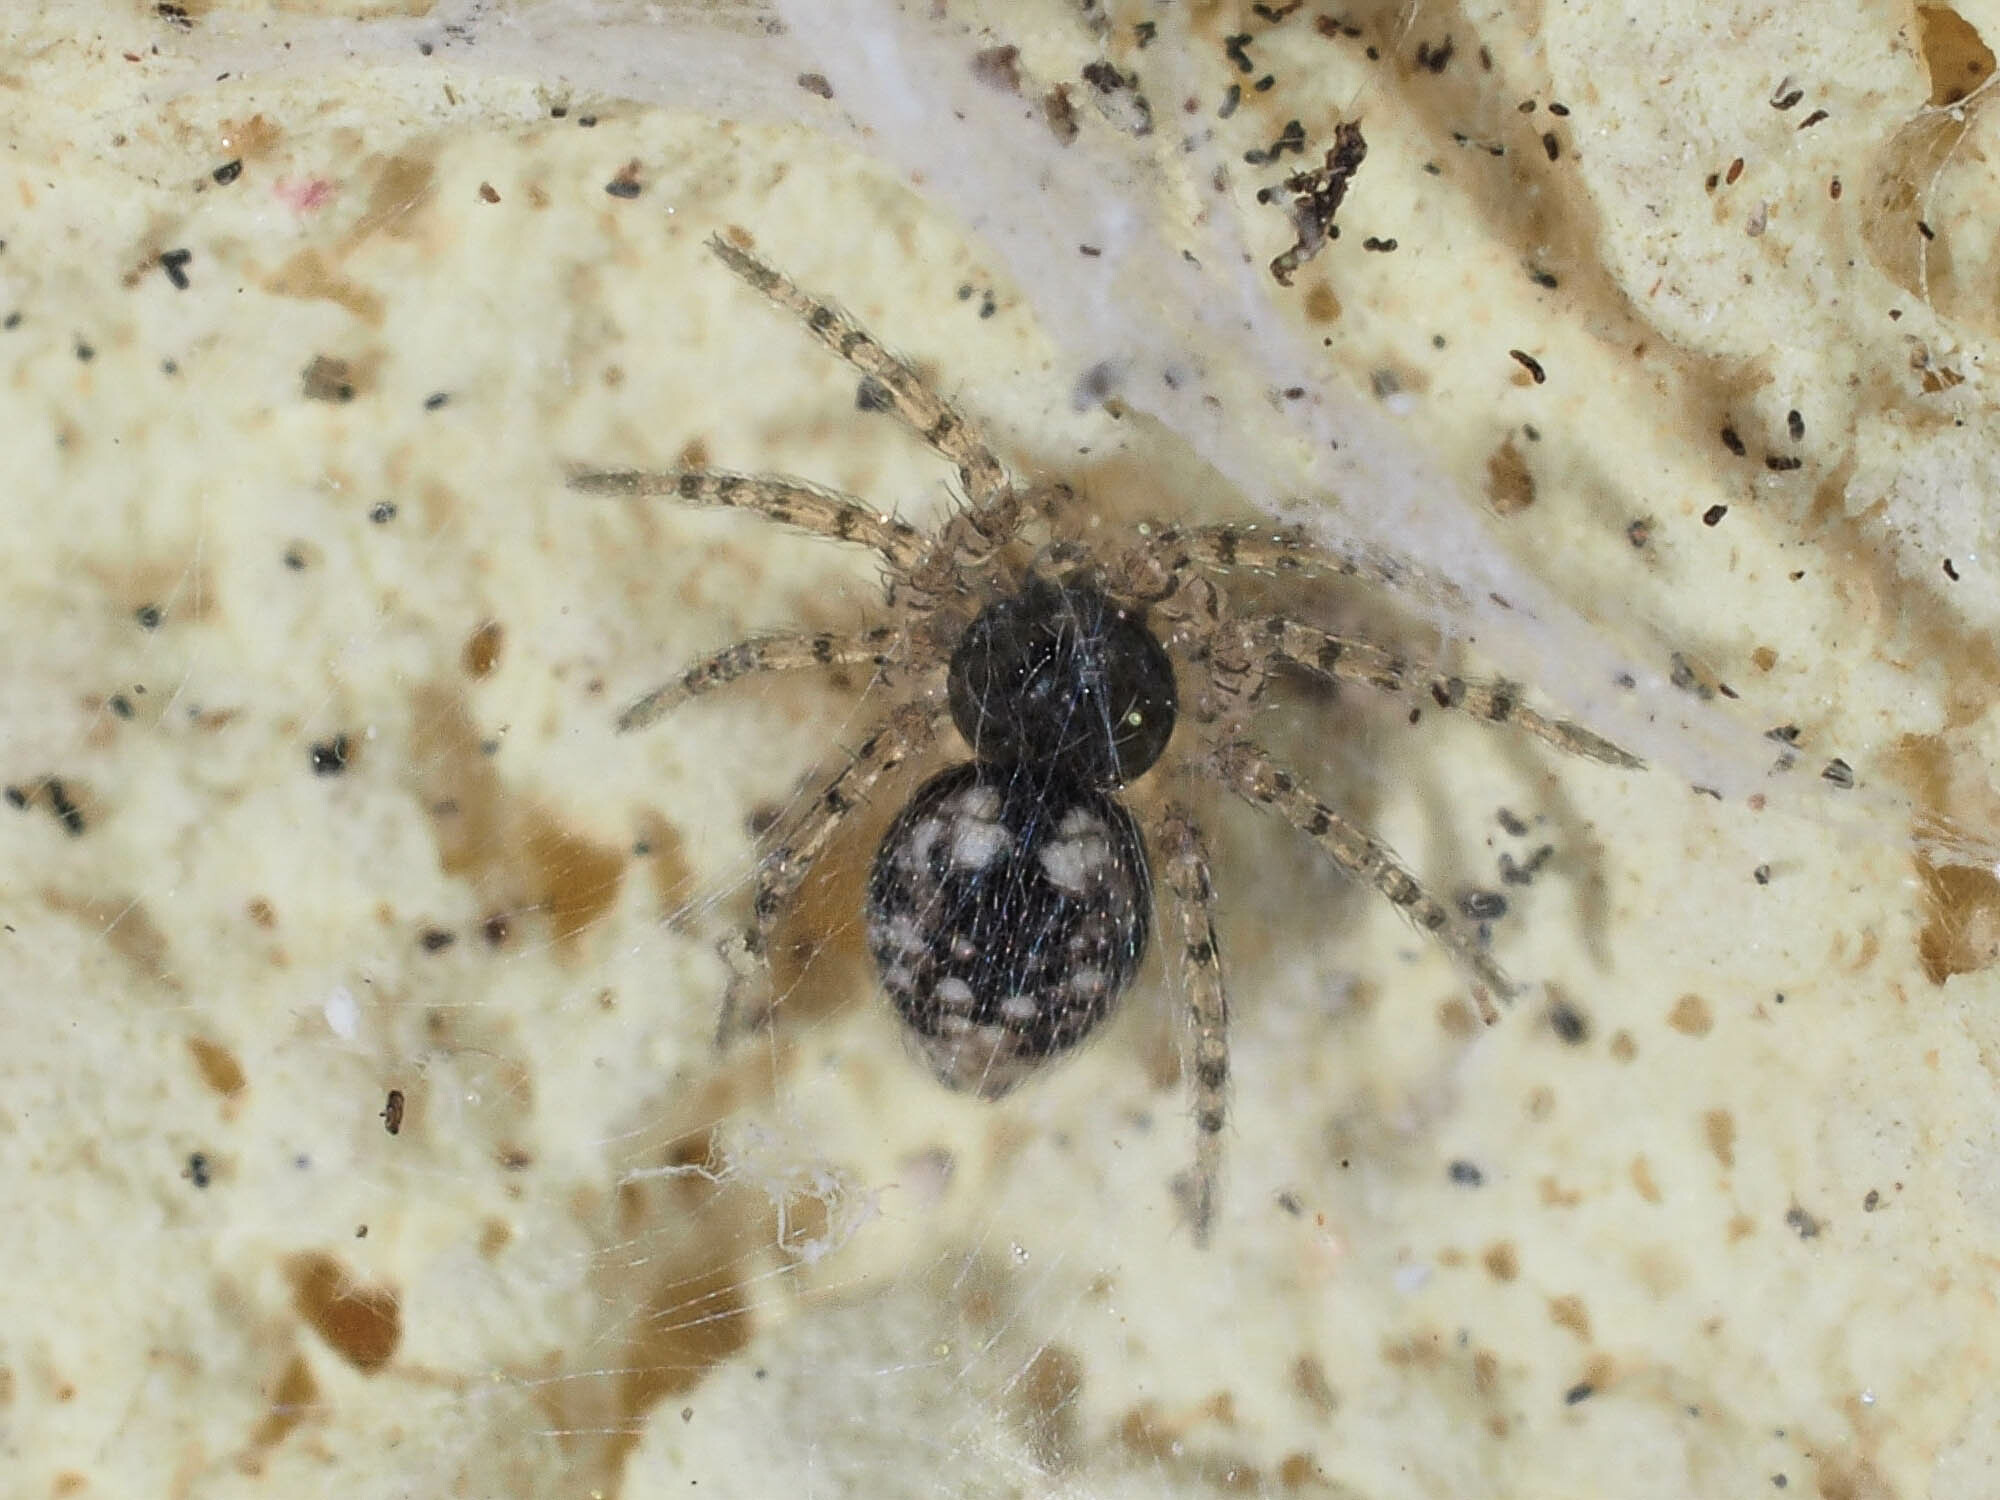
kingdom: Animalia
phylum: Arthropoda
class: Arachnida
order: Araneae
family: Oecobiidae
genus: Oecobius
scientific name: Oecobius maculatus
